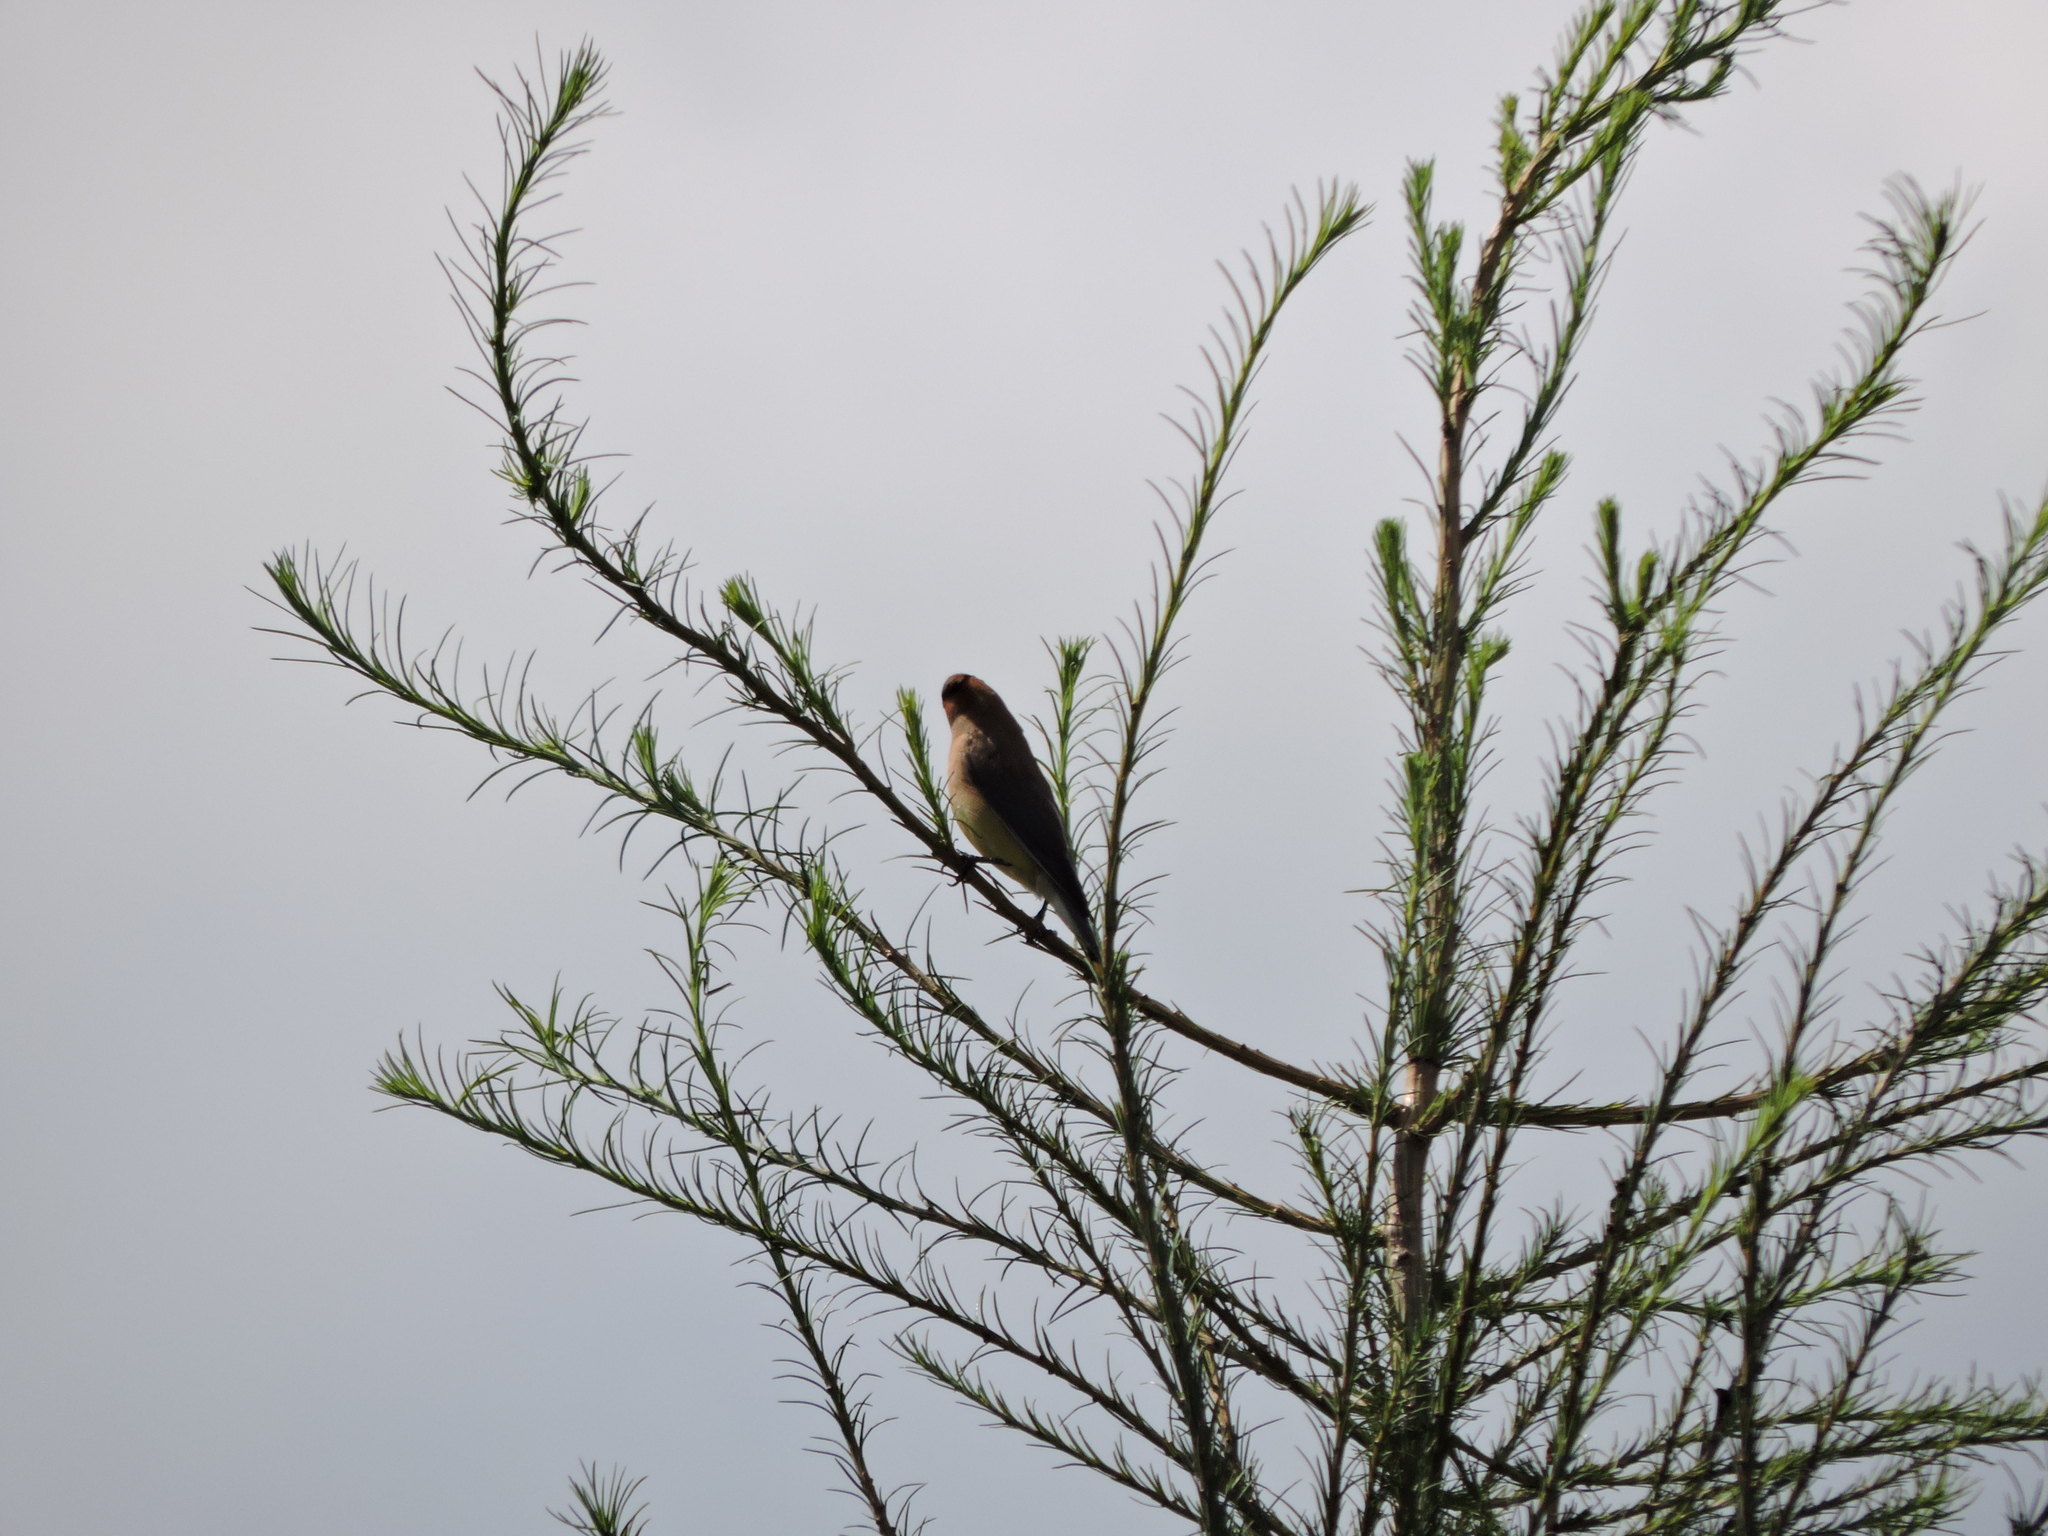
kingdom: Animalia
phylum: Chordata
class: Aves
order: Passeriformes
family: Bombycillidae
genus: Bombycilla
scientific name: Bombycilla cedrorum
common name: Cedar waxwing
